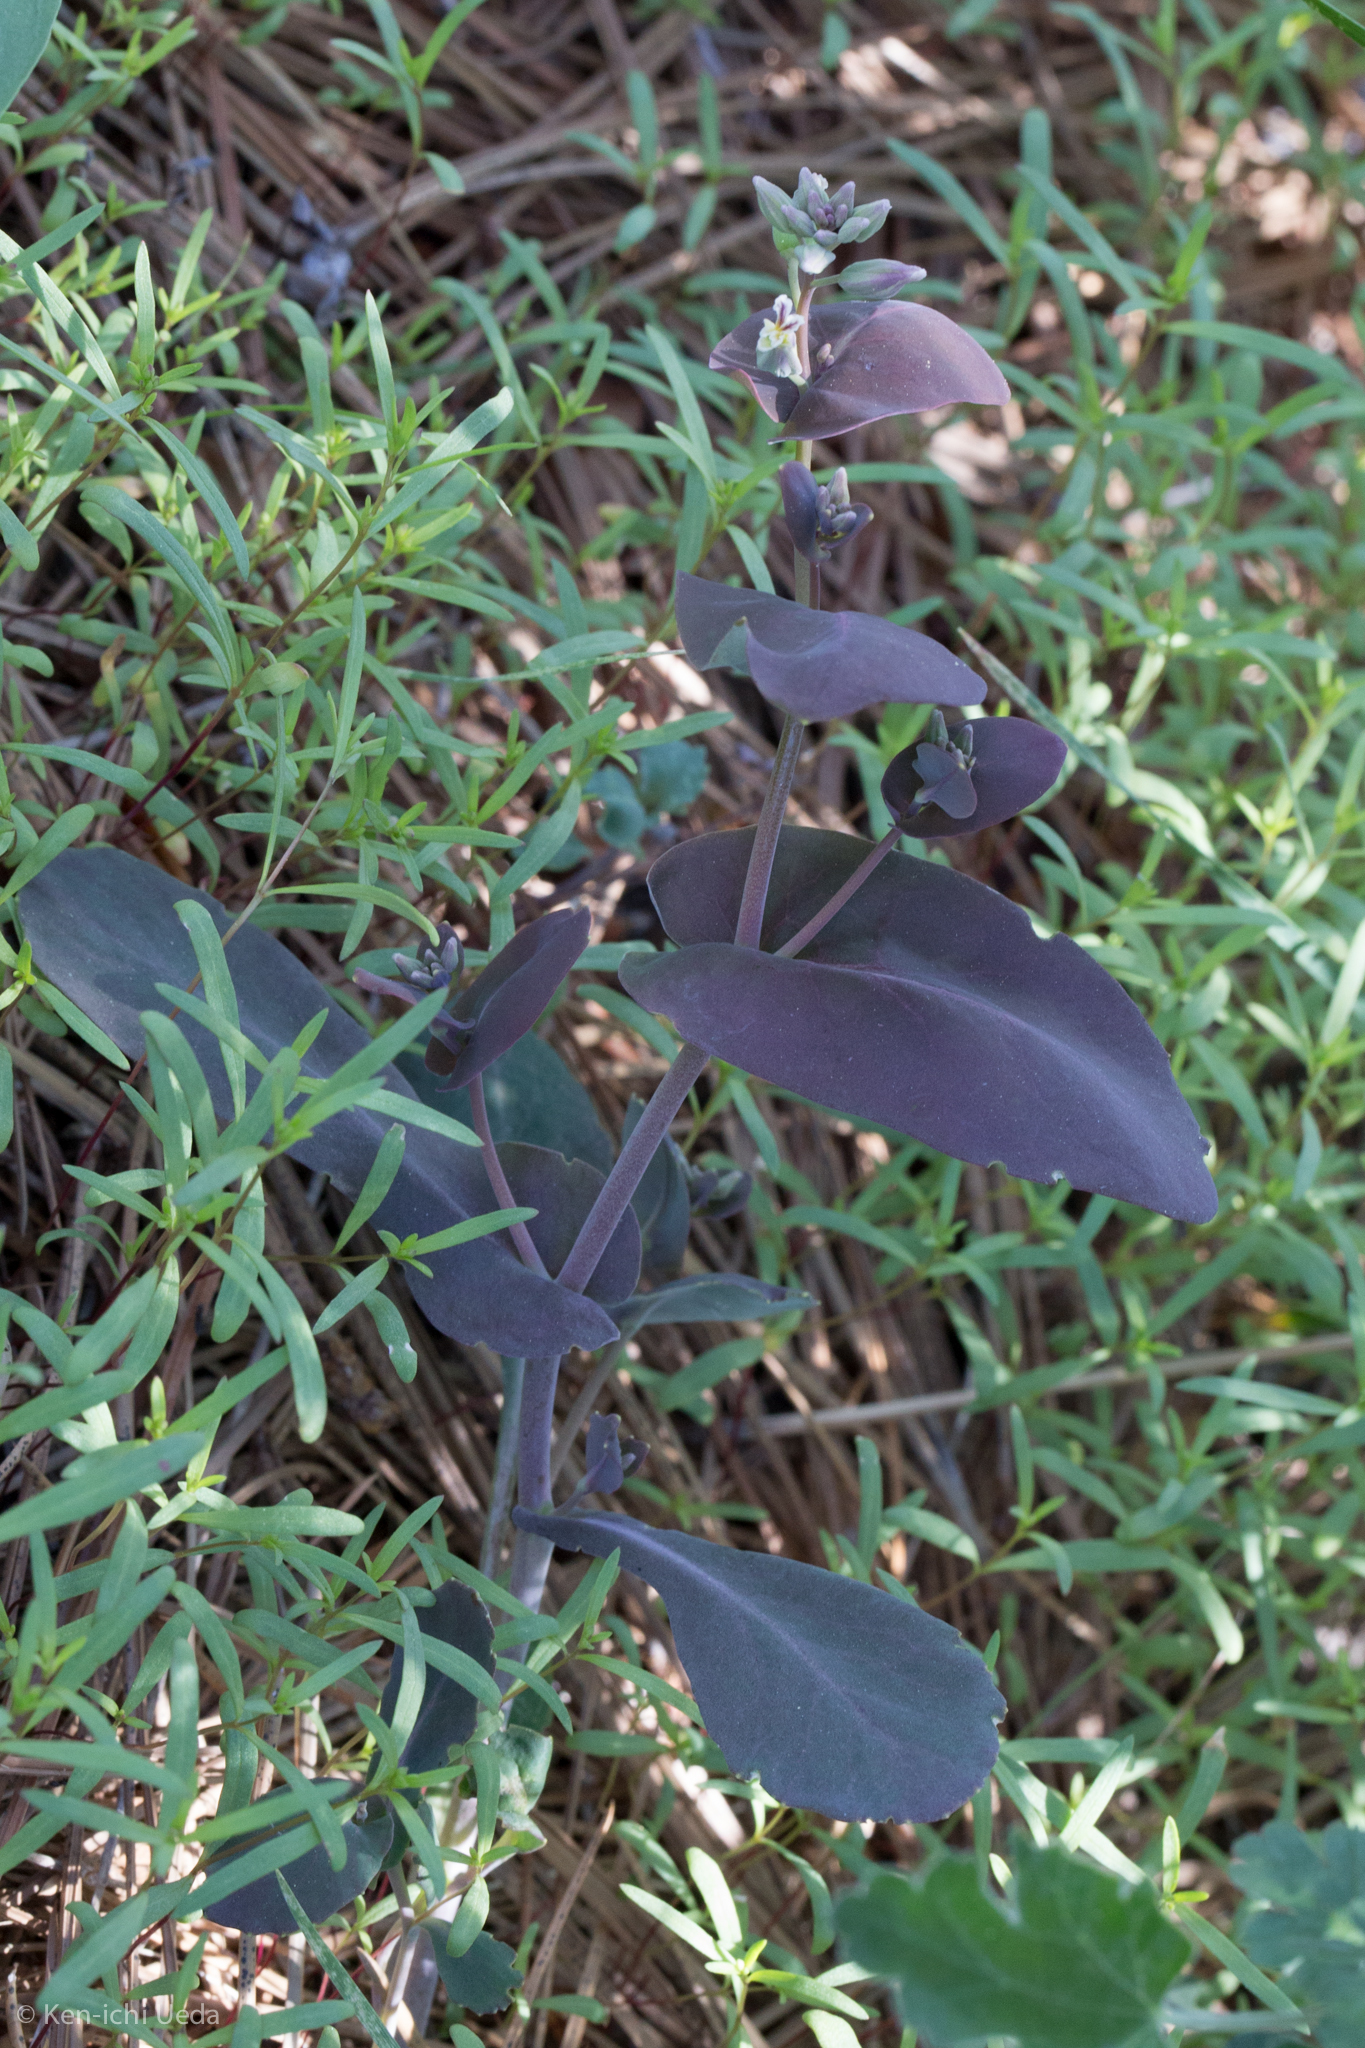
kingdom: Plantae
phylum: Tracheophyta
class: Magnoliopsida
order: Brassicales
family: Brassicaceae
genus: Streptanthus
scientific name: Streptanthus tortuosus
